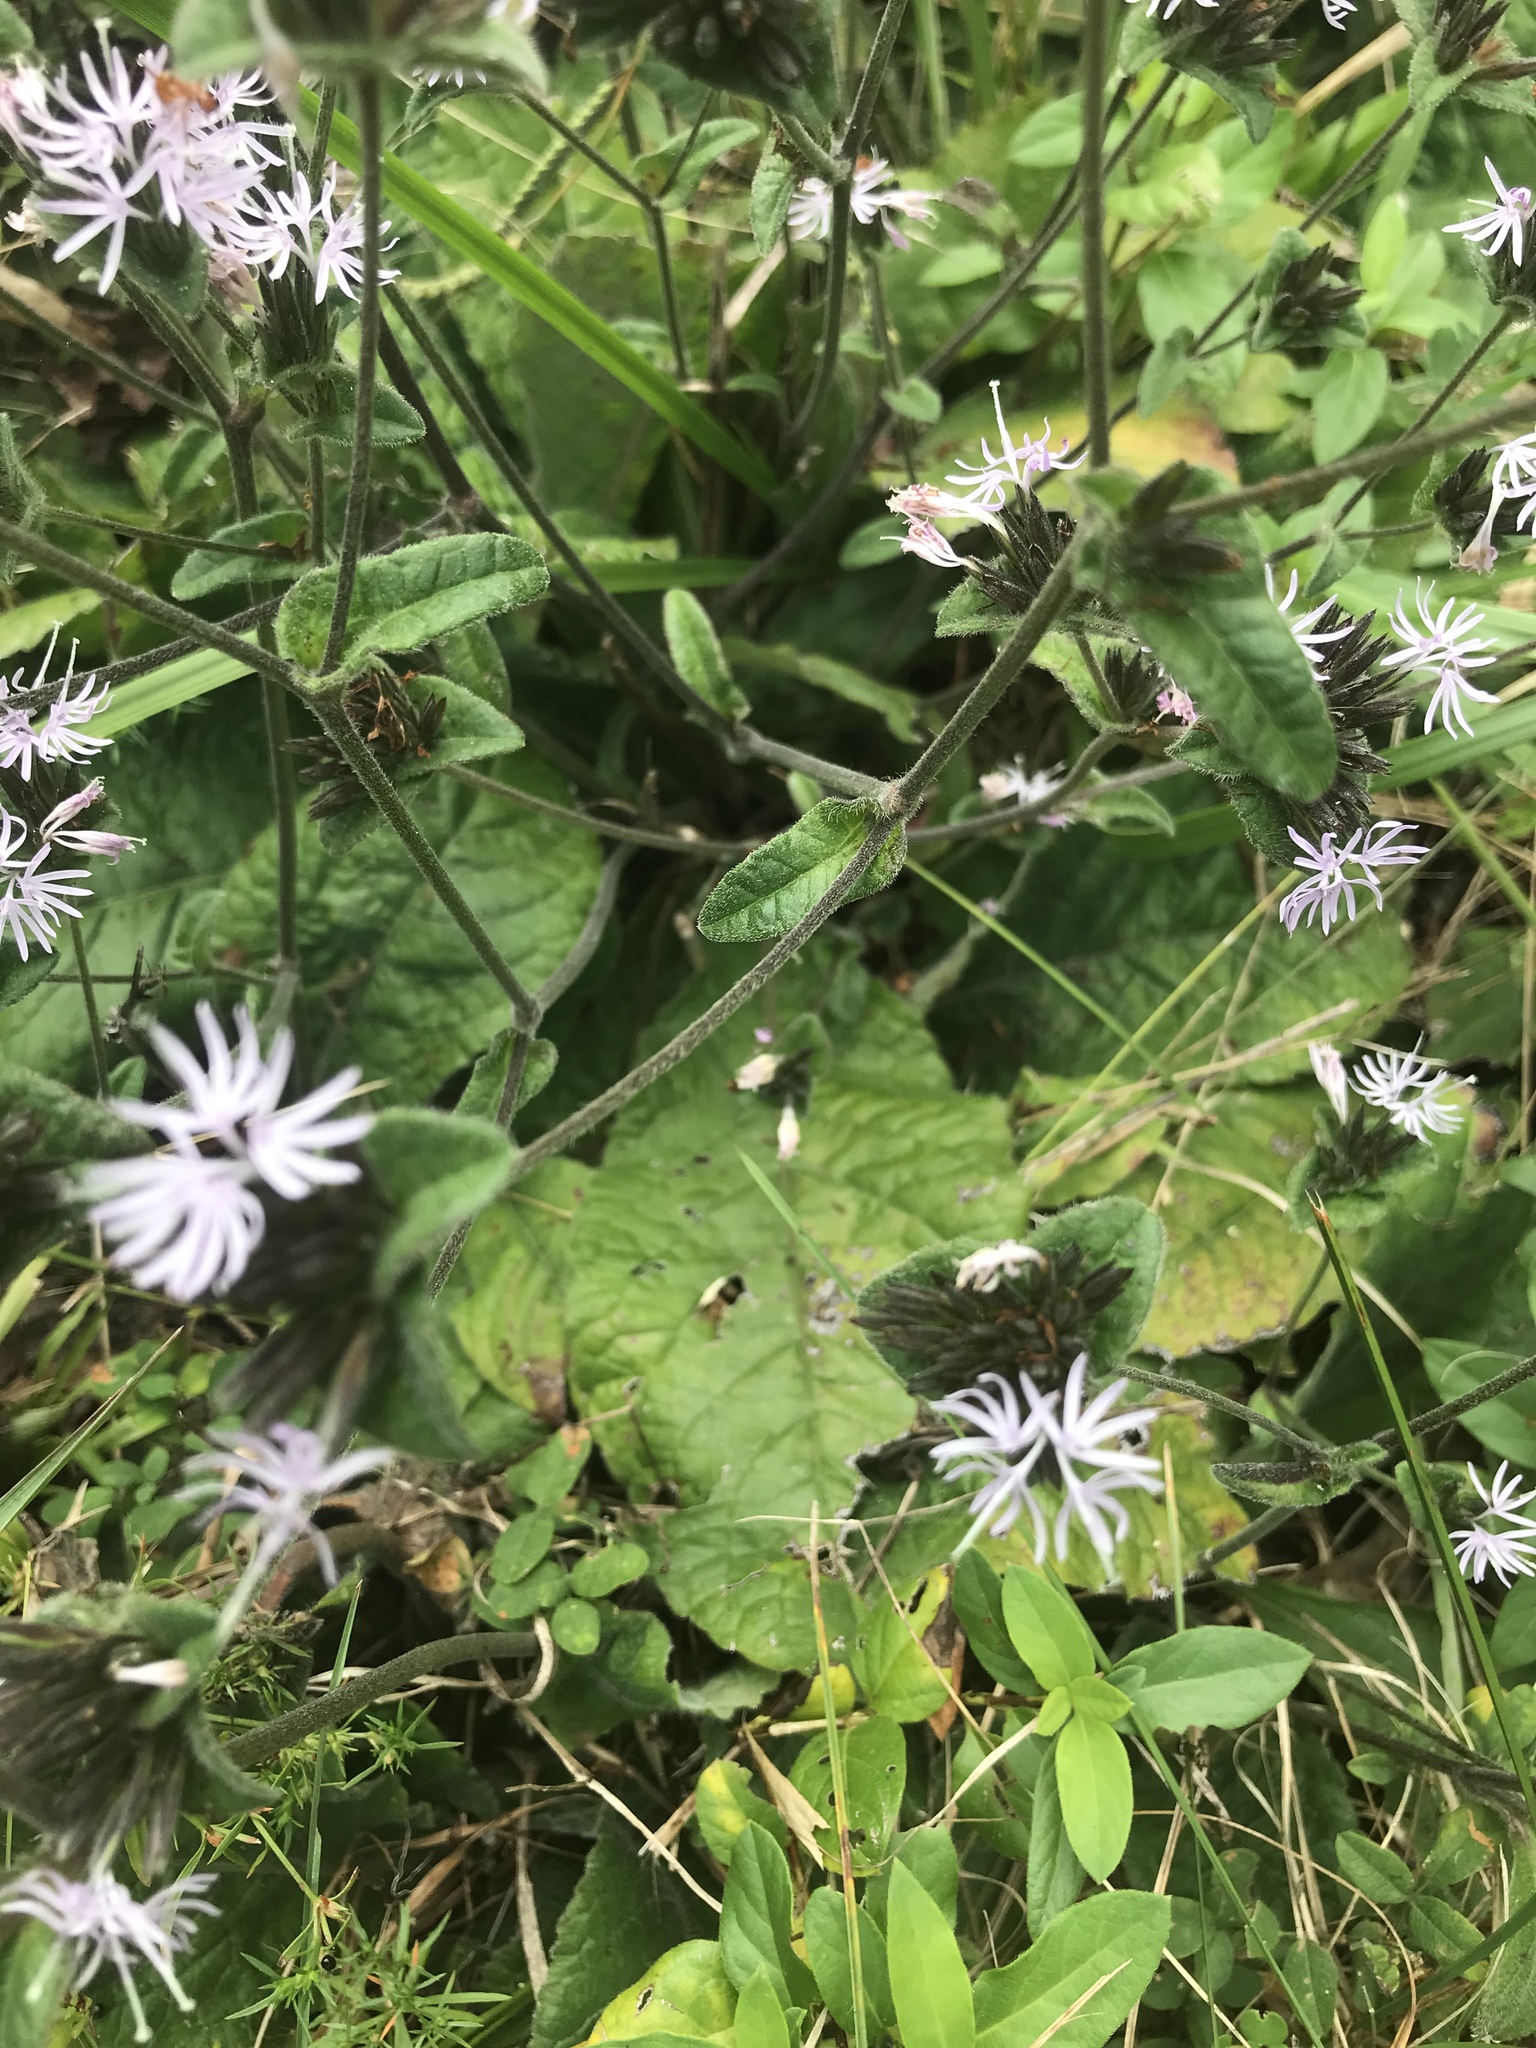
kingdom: Plantae
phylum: Tracheophyta
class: Magnoliopsida
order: Asterales
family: Asteraceae
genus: Elephantopus
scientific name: Elephantopus tomentosus
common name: Tobacco-weed
